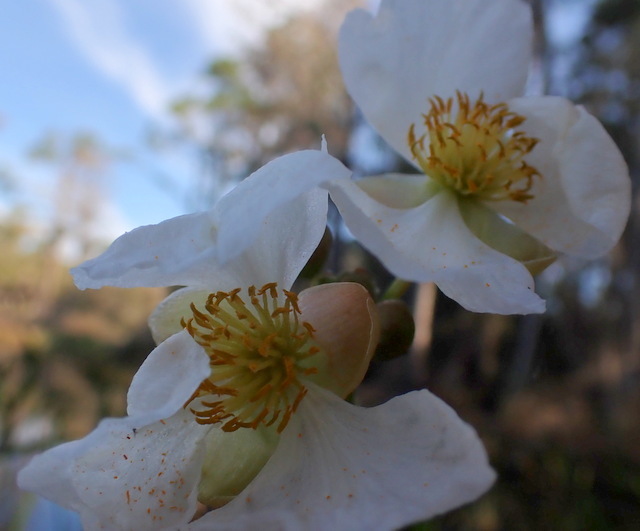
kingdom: Plantae
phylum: Tracheophyta
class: Liliopsida
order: Alismatales
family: Alismataceae
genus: Sagittaria
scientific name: Sagittaria lancifolia
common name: Lance-leaf arrowhead
